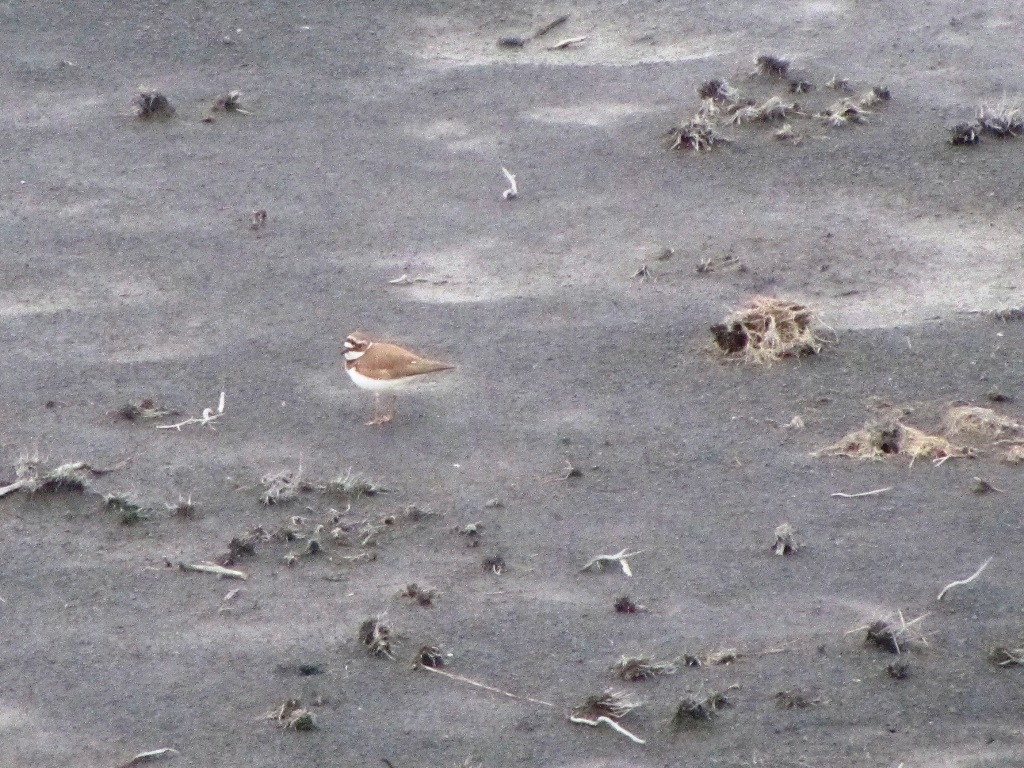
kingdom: Animalia
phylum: Chordata
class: Aves
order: Charadriiformes
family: Charadriidae
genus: Charadrius
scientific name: Charadrius dubius
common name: Little ringed plover
